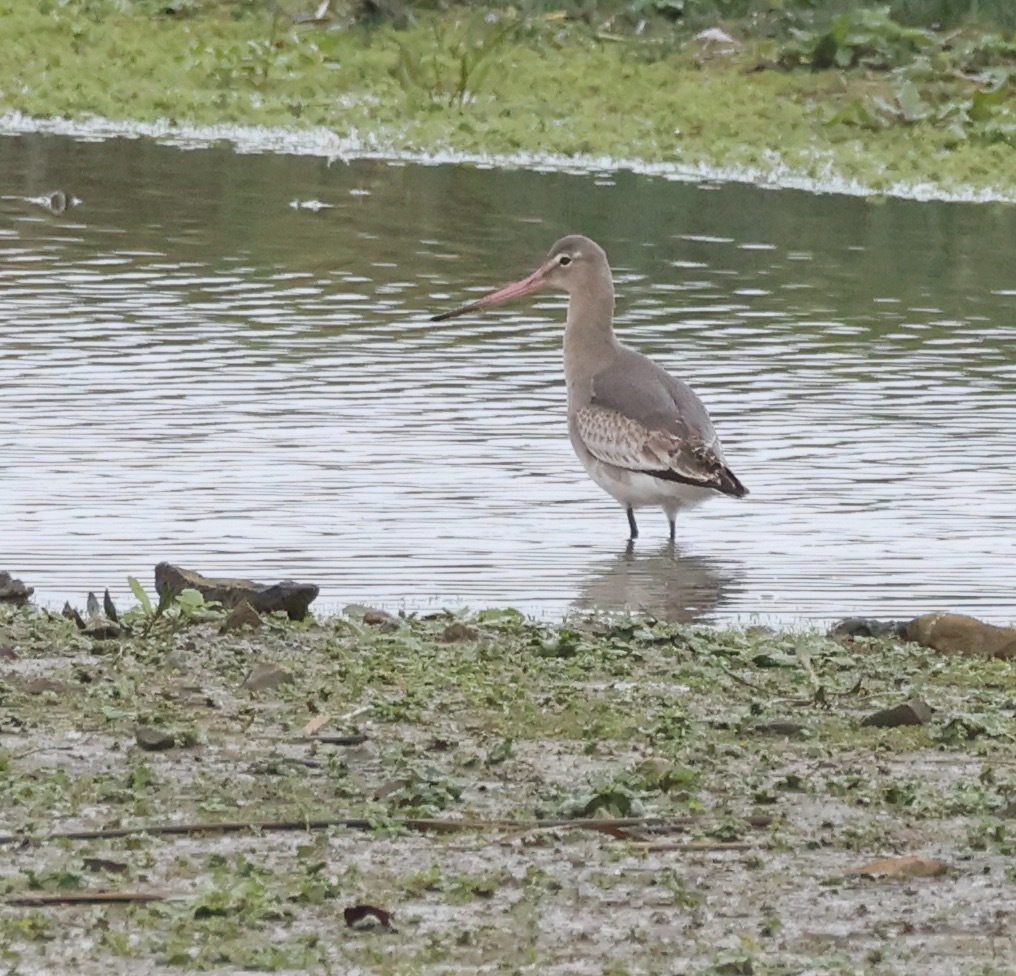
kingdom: Animalia
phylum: Chordata
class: Aves
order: Charadriiformes
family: Scolopacidae
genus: Limosa
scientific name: Limosa limosa
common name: Black-tailed godwit
